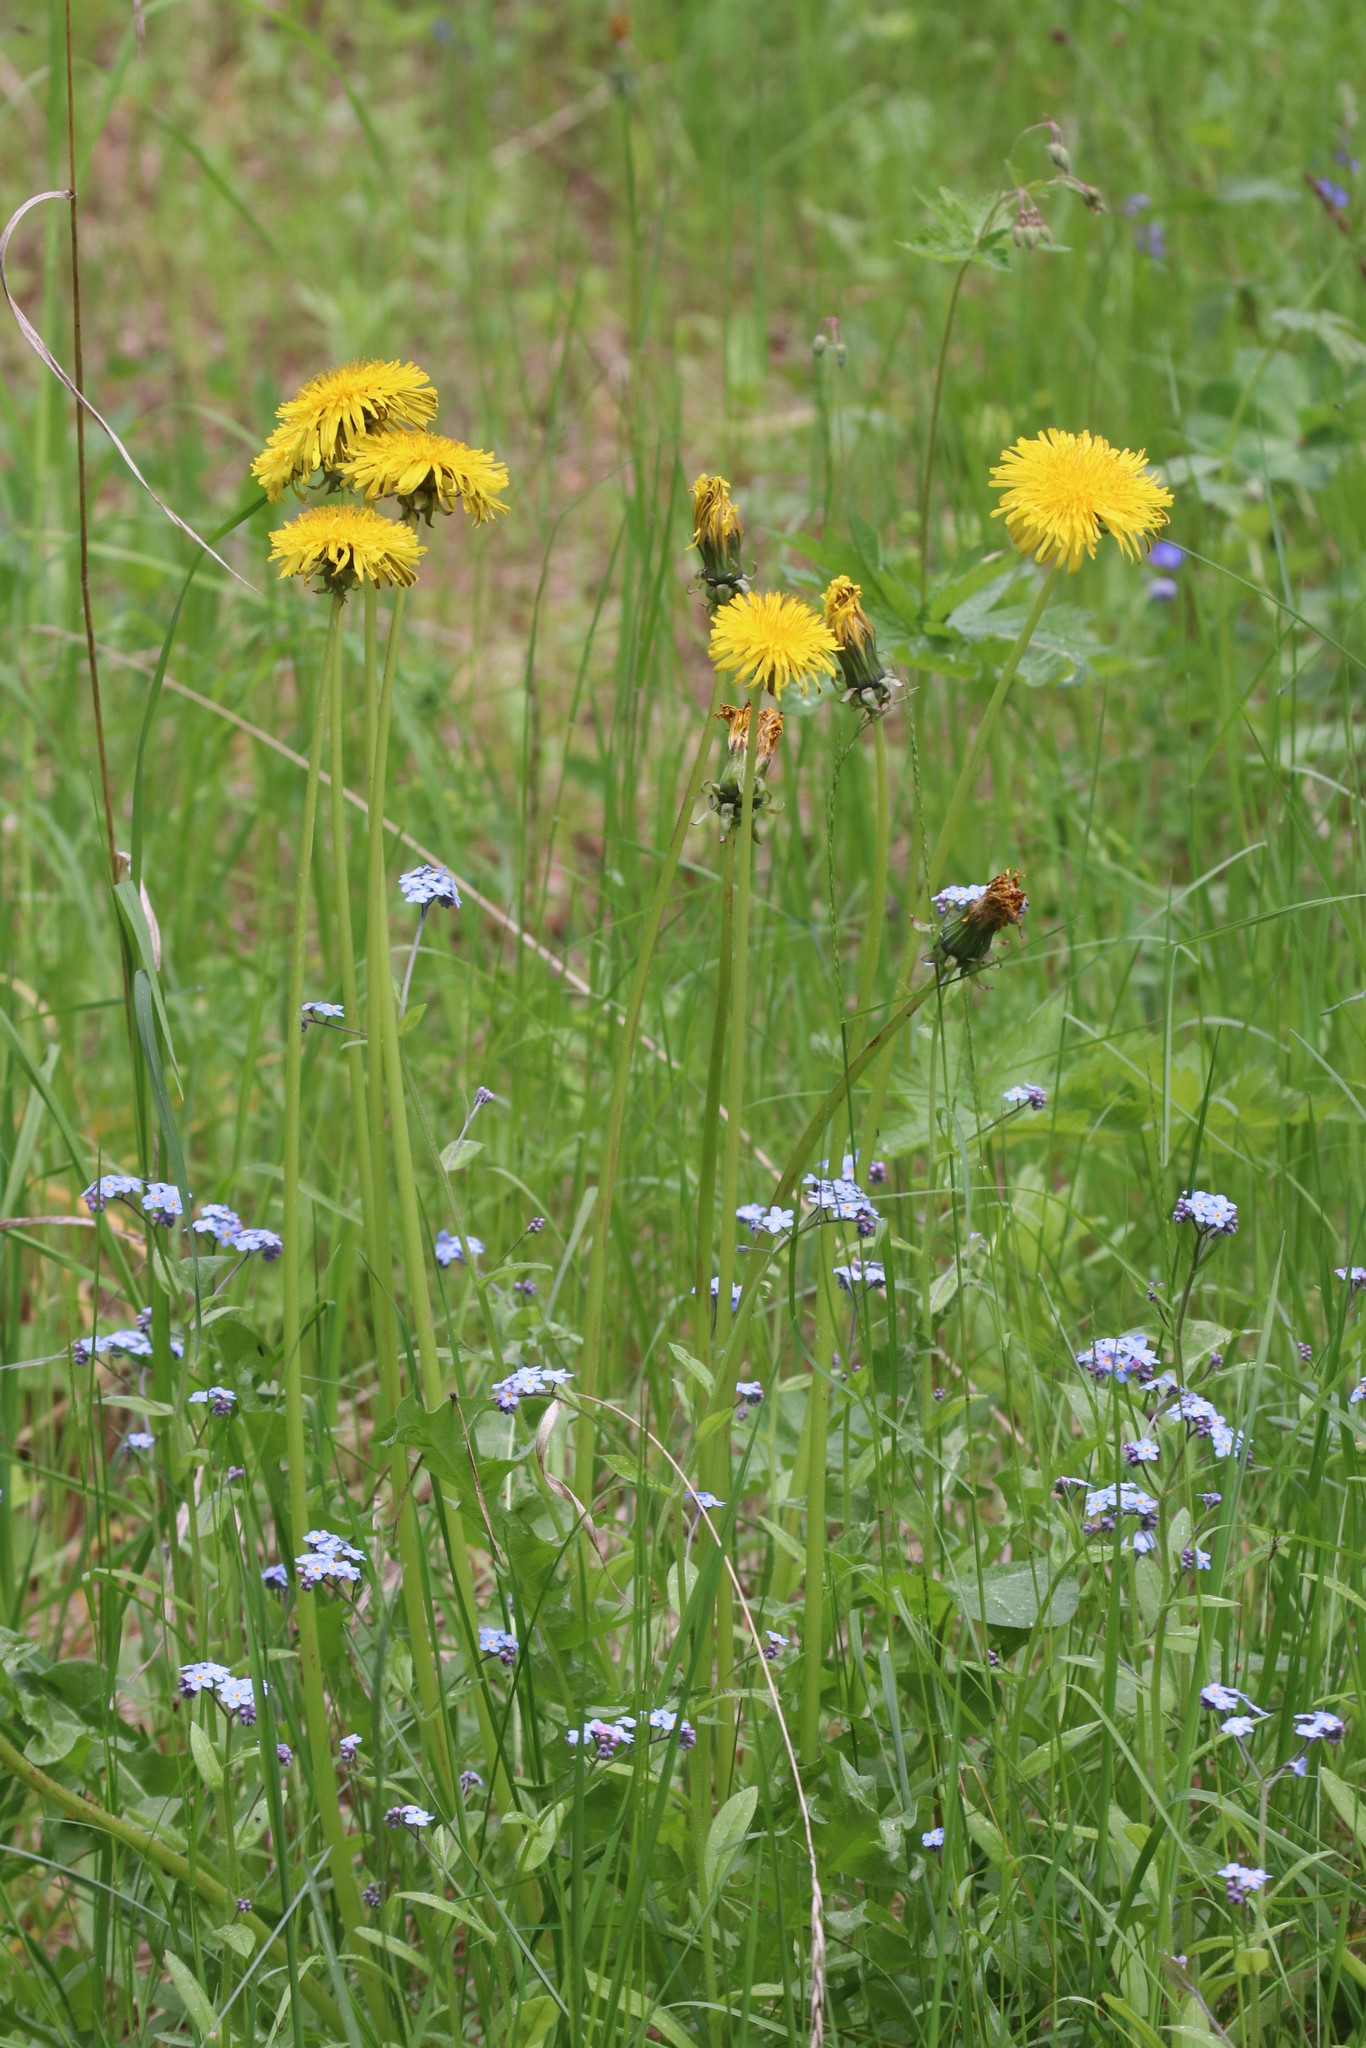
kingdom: Plantae
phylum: Tracheophyta
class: Magnoliopsida
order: Asterales
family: Asteraceae
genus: Taraxacum
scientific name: Taraxacum officinale
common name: Common dandelion
